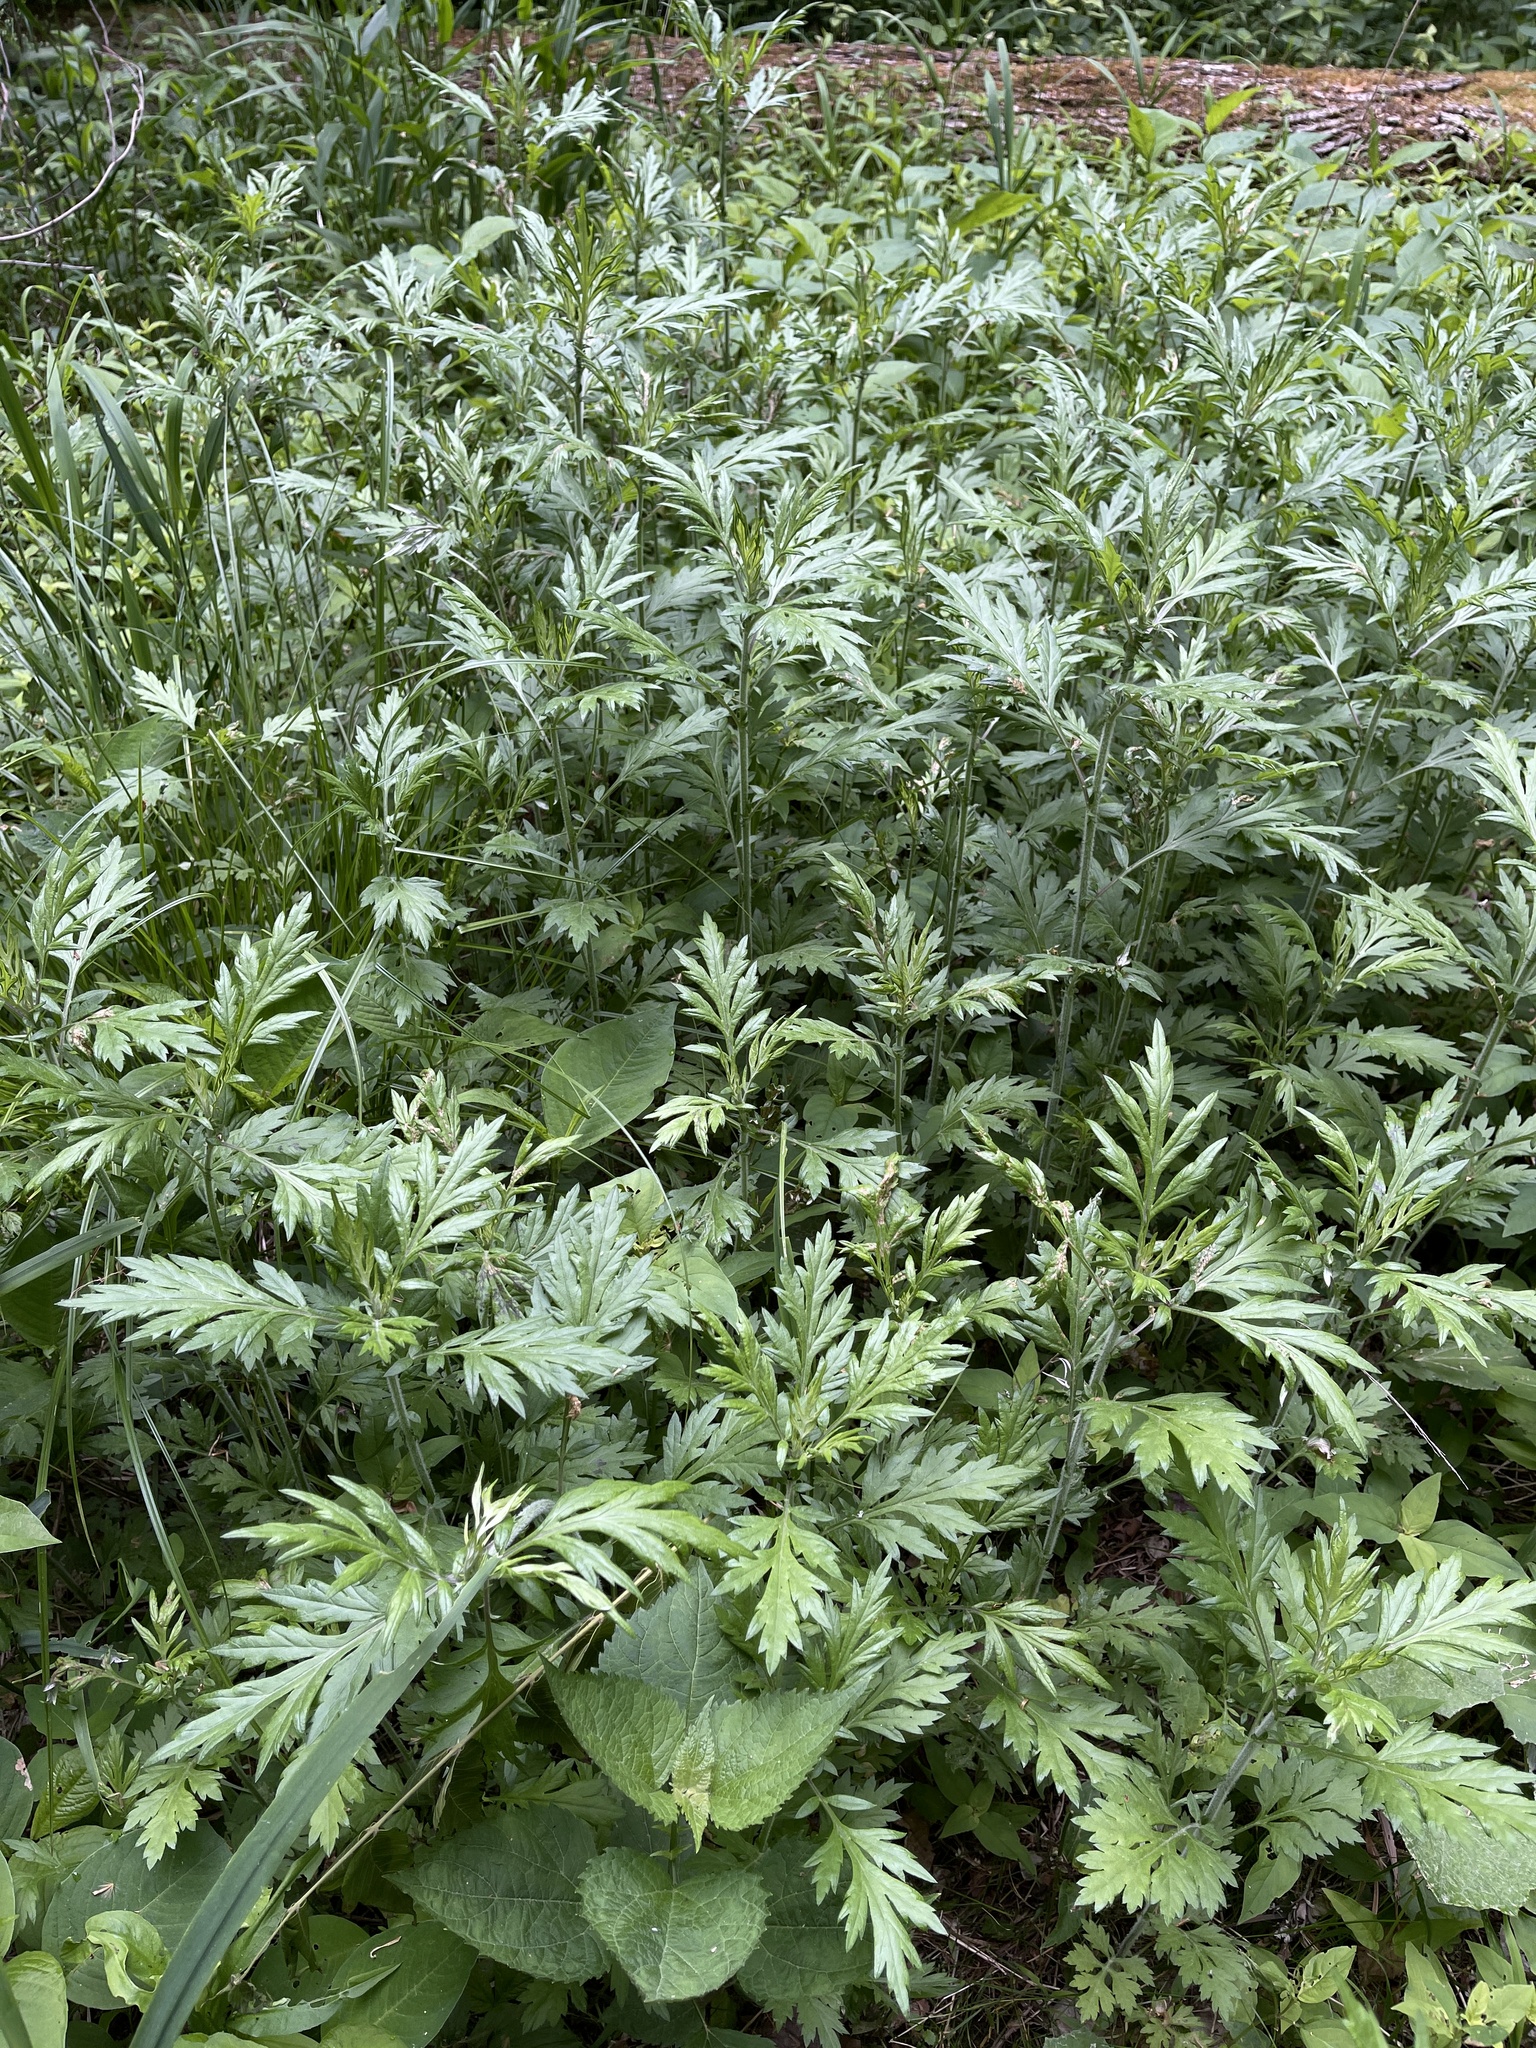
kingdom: Plantae
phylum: Tracheophyta
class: Magnoliopsida
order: Asterales
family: Asteraceae
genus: Artemisia
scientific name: Artemisia vulgaris
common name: Mugwort
